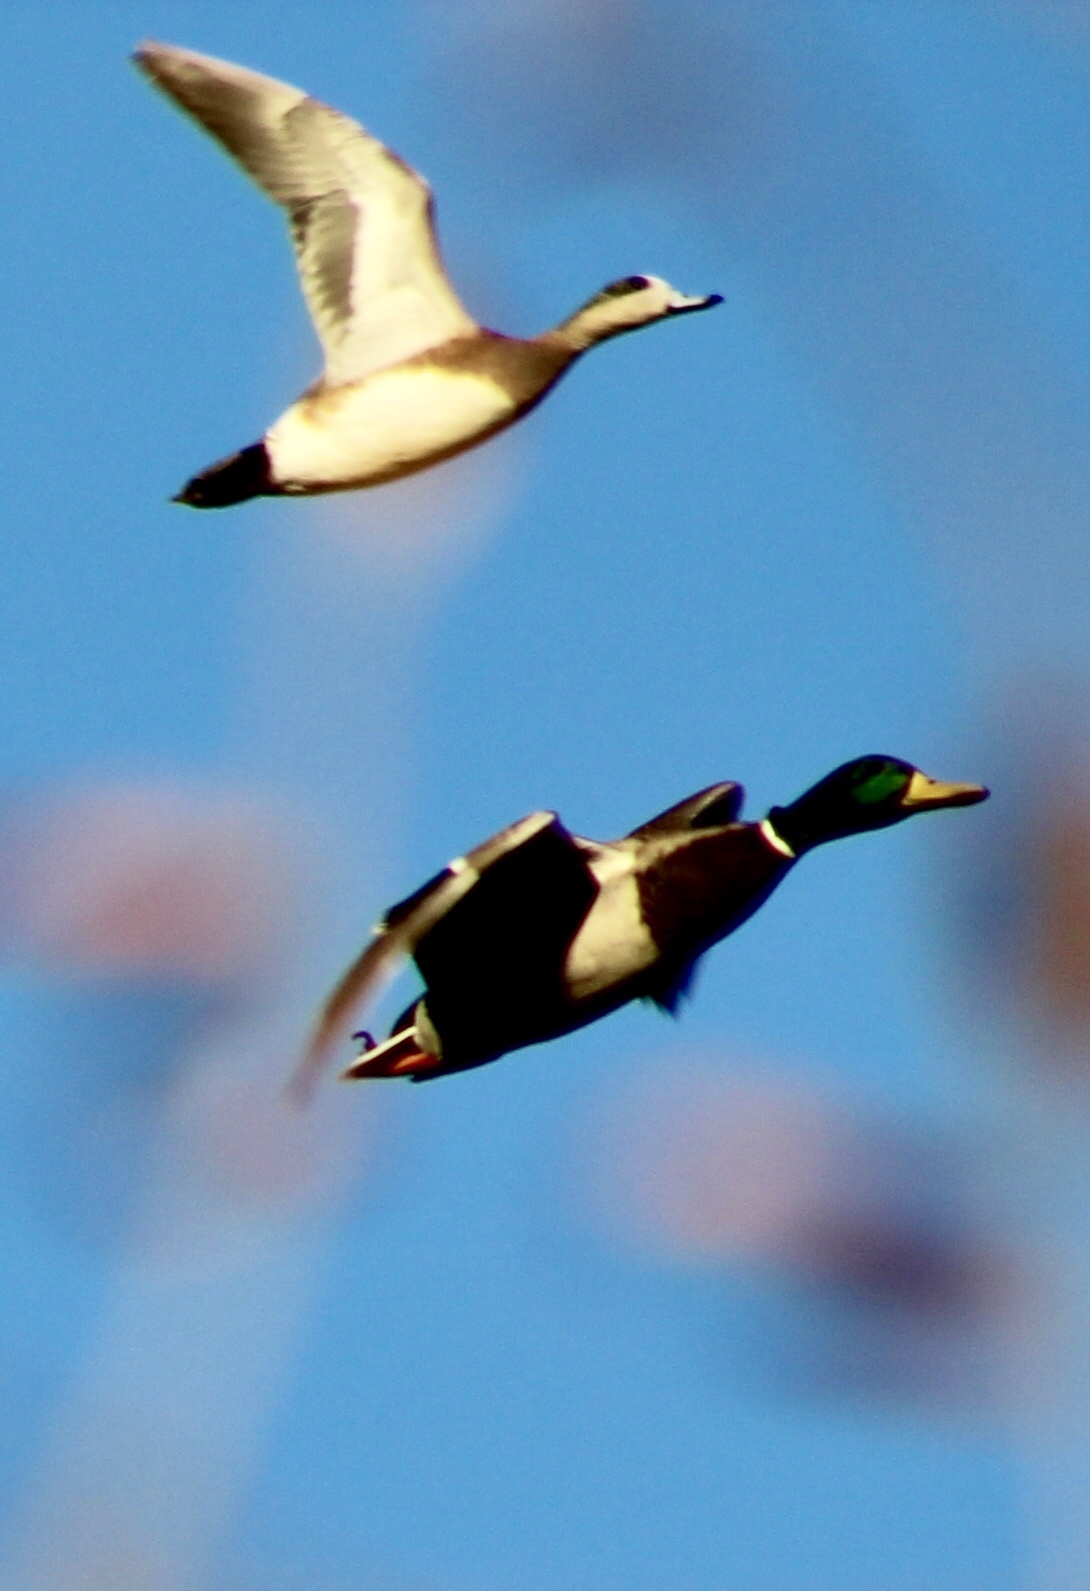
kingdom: Animalia
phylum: Chordata
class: Aves
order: Anseriformes
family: Anatidae
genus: Mareca
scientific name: Mareca americana
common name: American wigeon
